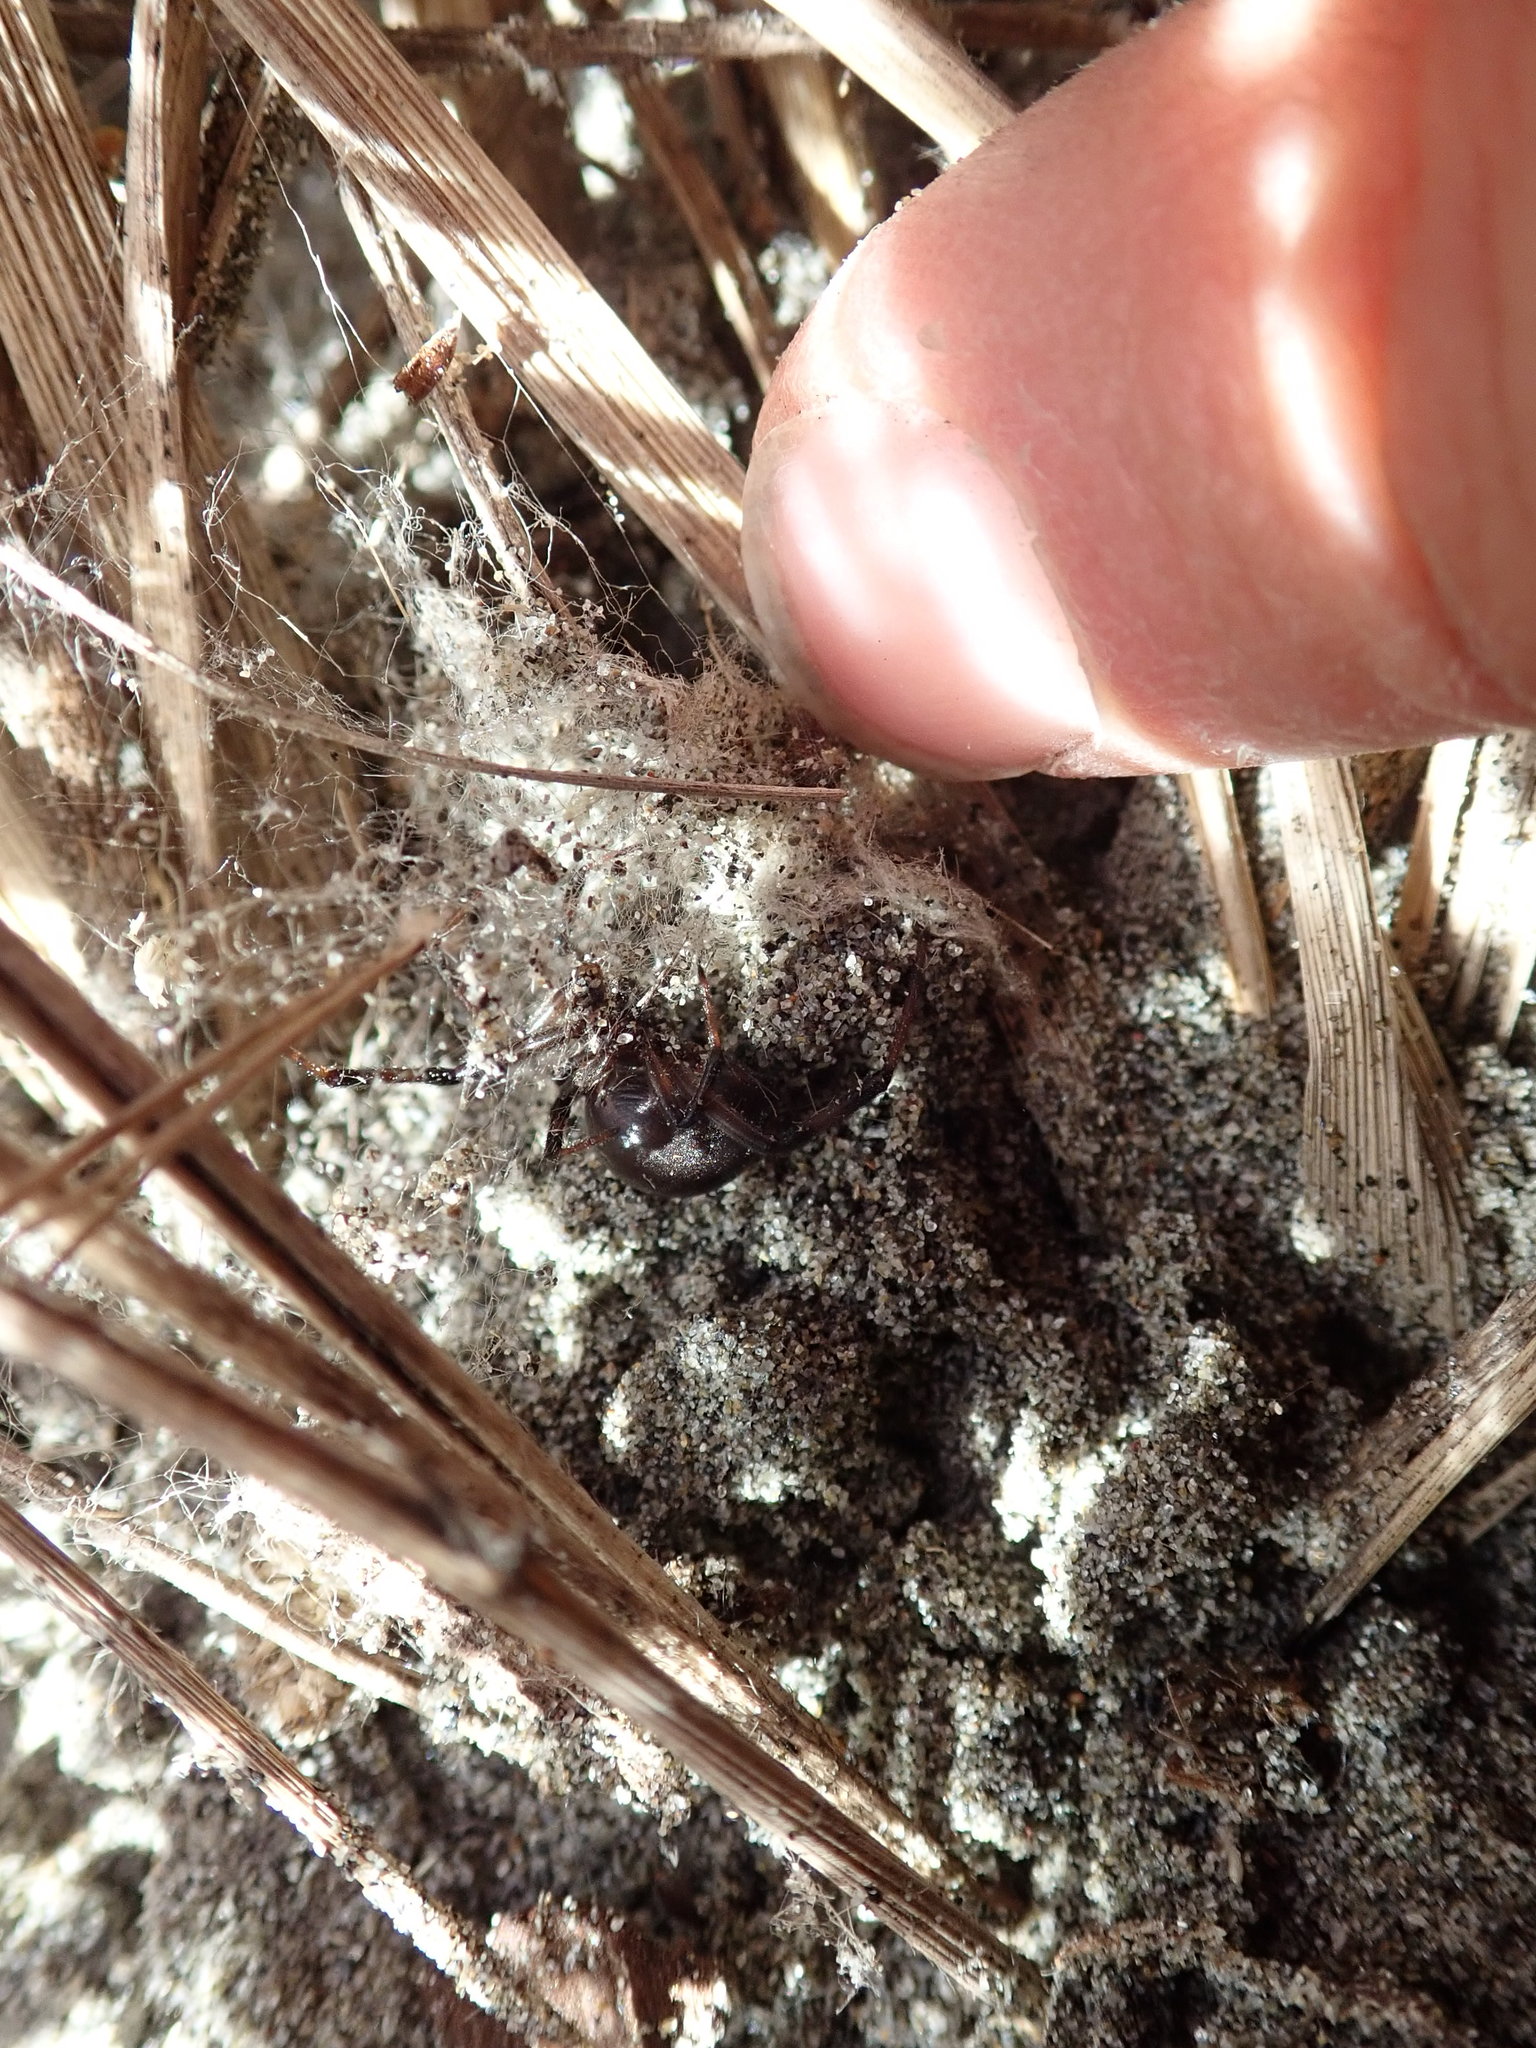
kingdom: Animalia
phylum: Arthropoda
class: Arachnida
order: Araneae
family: Theridiidae
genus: Latrodectus
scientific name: Latrodectus katipo
